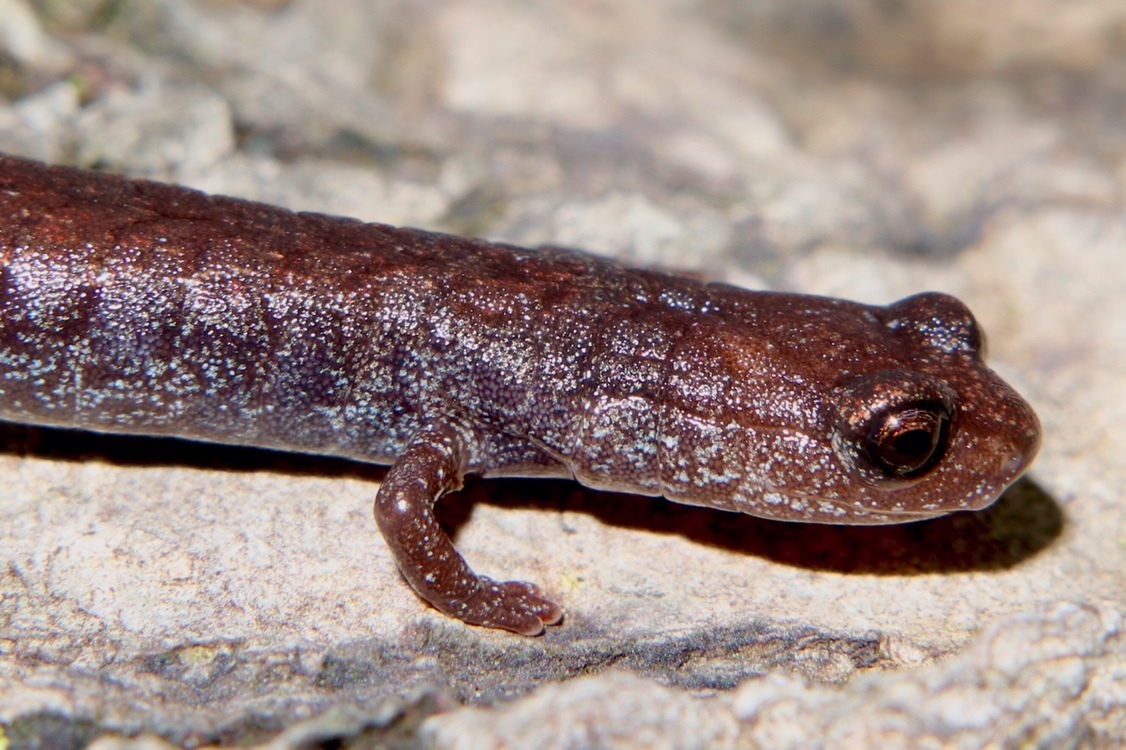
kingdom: Animalia
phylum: Chordata
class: Amphibia
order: Caudata
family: Plethodontidae
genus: Batrachoseps
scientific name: Batrachoseps gavilanensis
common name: Gabilan mountains slender salamander
